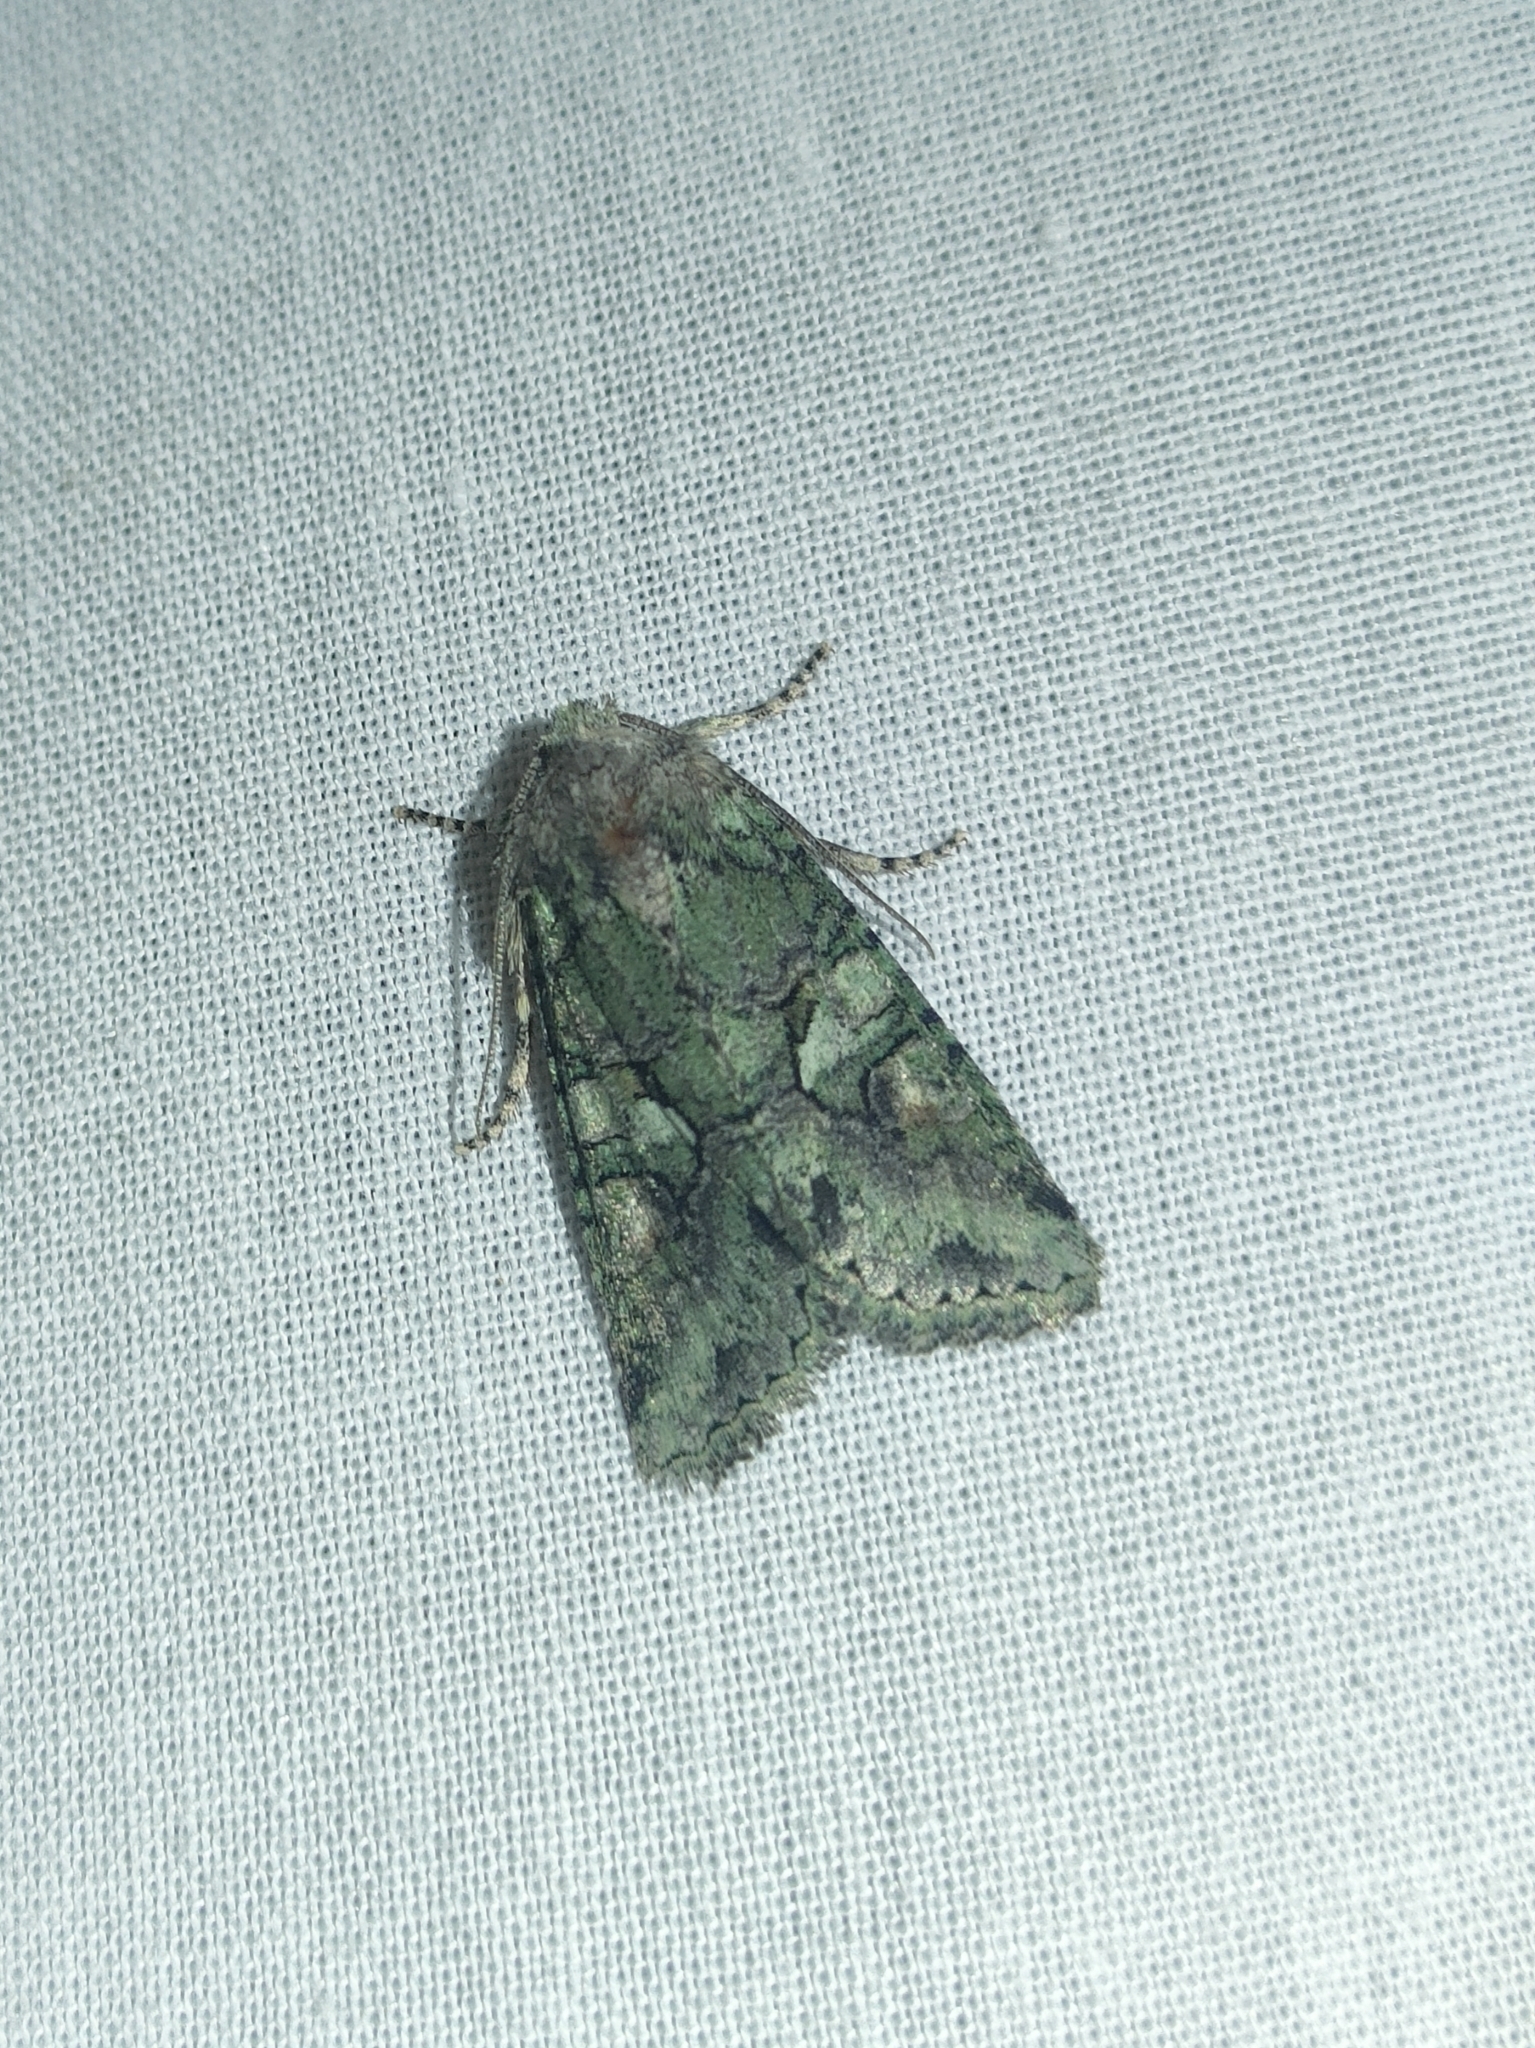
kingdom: Animalia
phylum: Arthropoda
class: Insecta
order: Lepidoptera
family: Noctuidae
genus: Dryobotodes
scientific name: Dryobotodes roboris
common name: Southern brindled green
